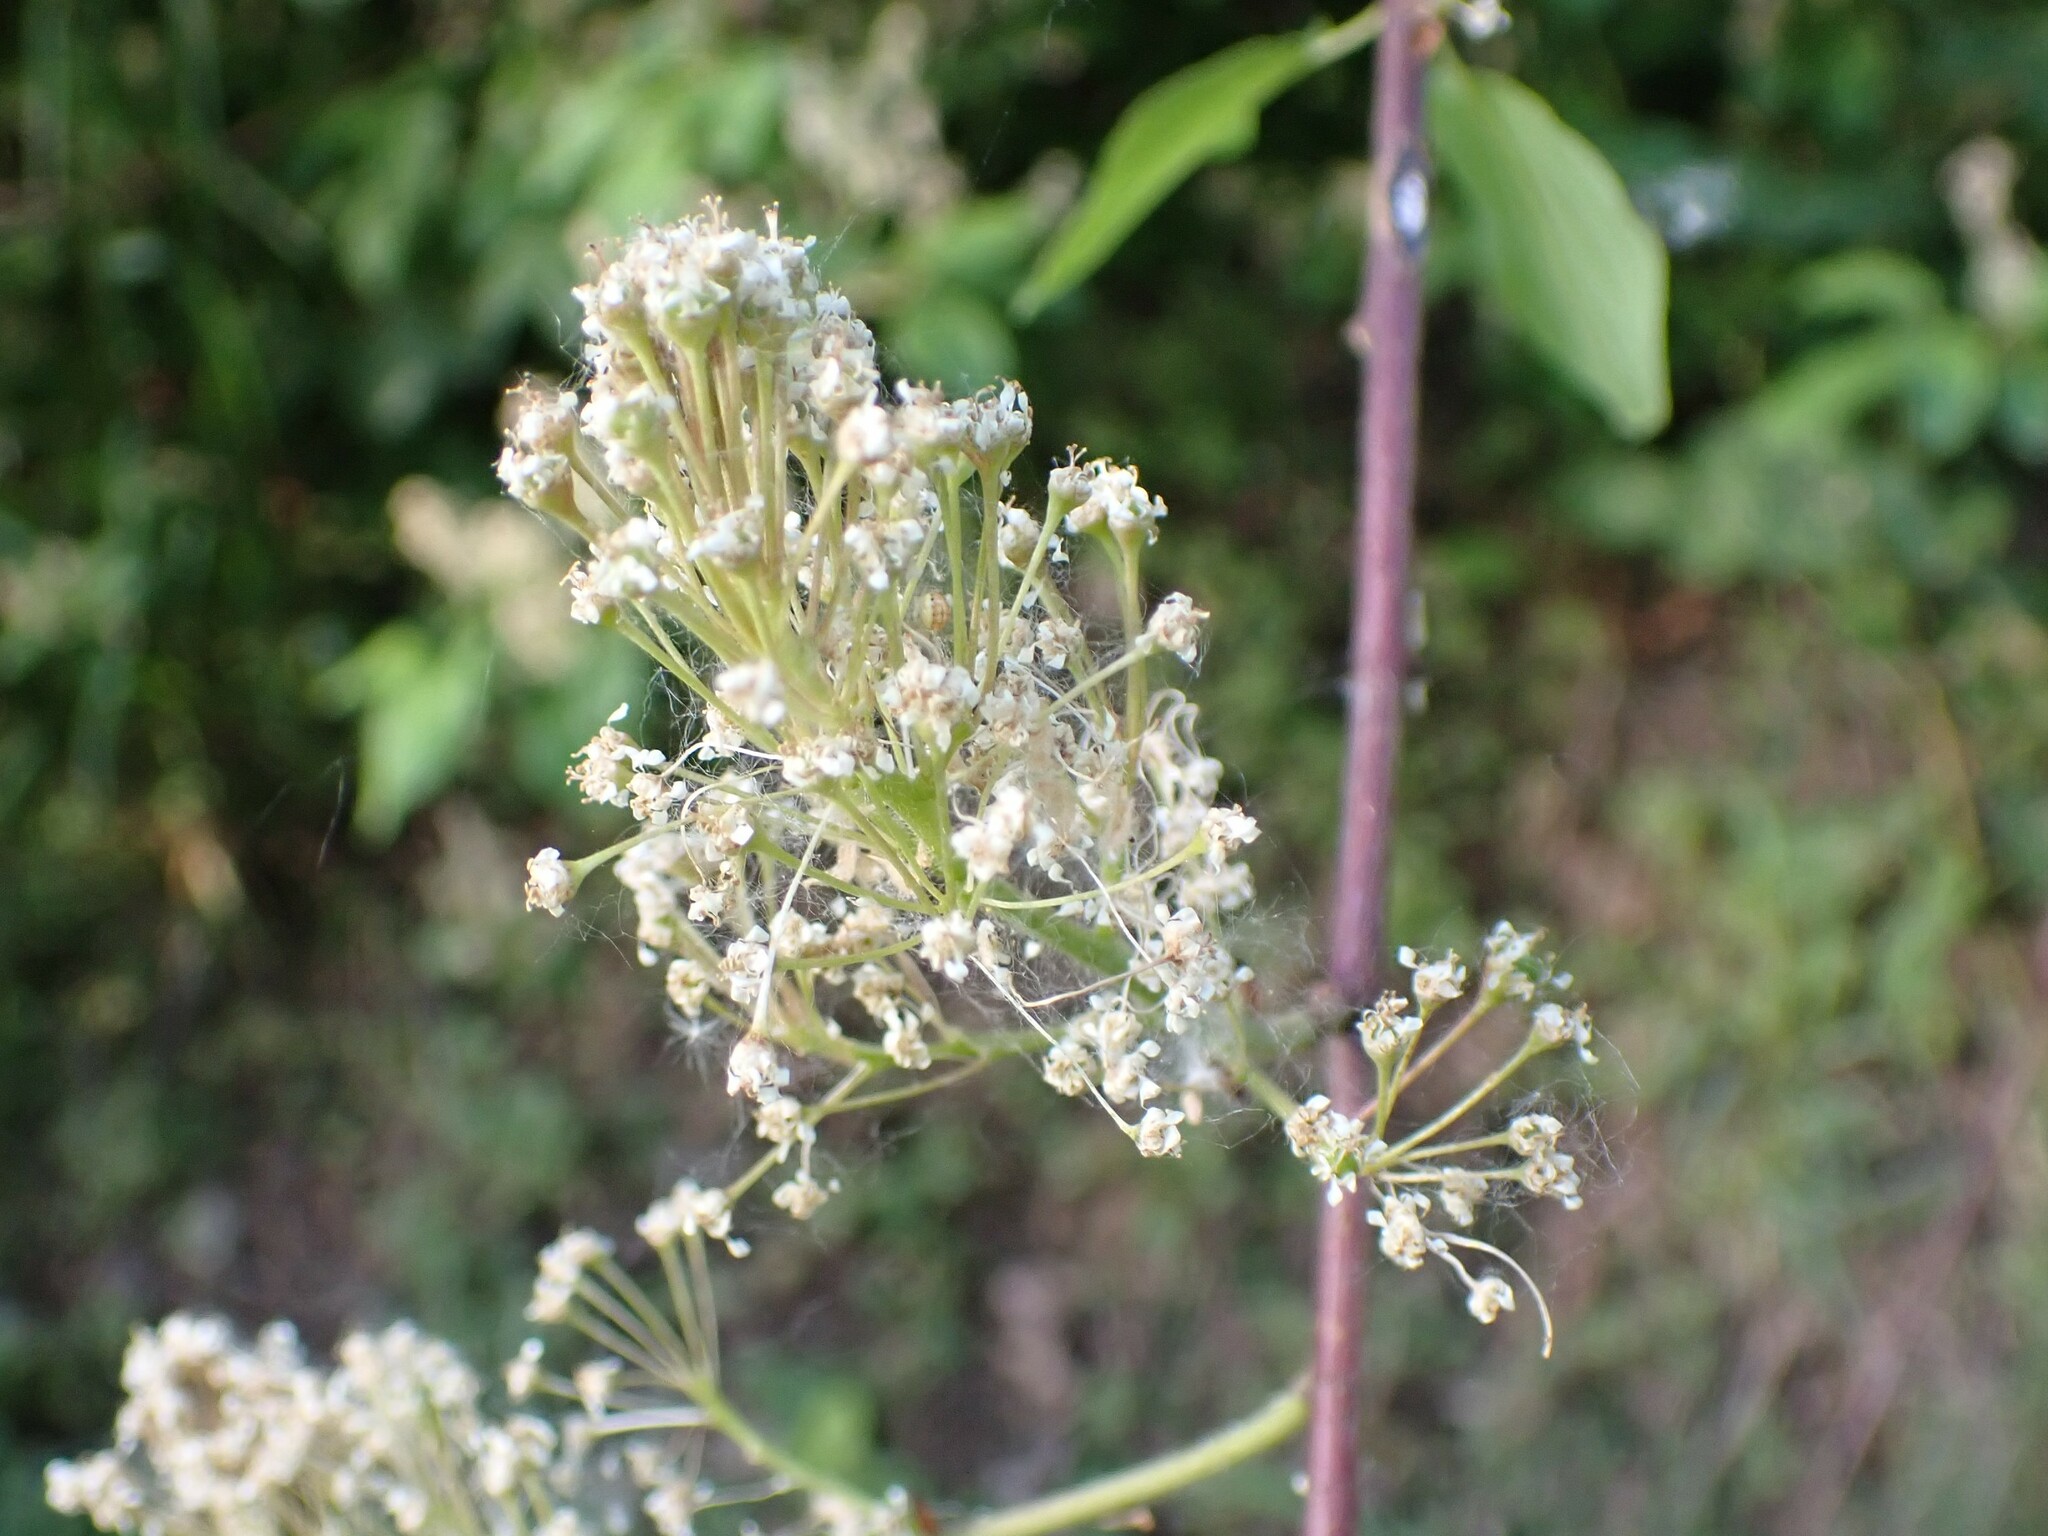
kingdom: Plantae
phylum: Tracheophyta
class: Magnoliopsida
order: Rosales
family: Rhamnaceae
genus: Ceanothus
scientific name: Ceanothus sanguineus
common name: Teatree
